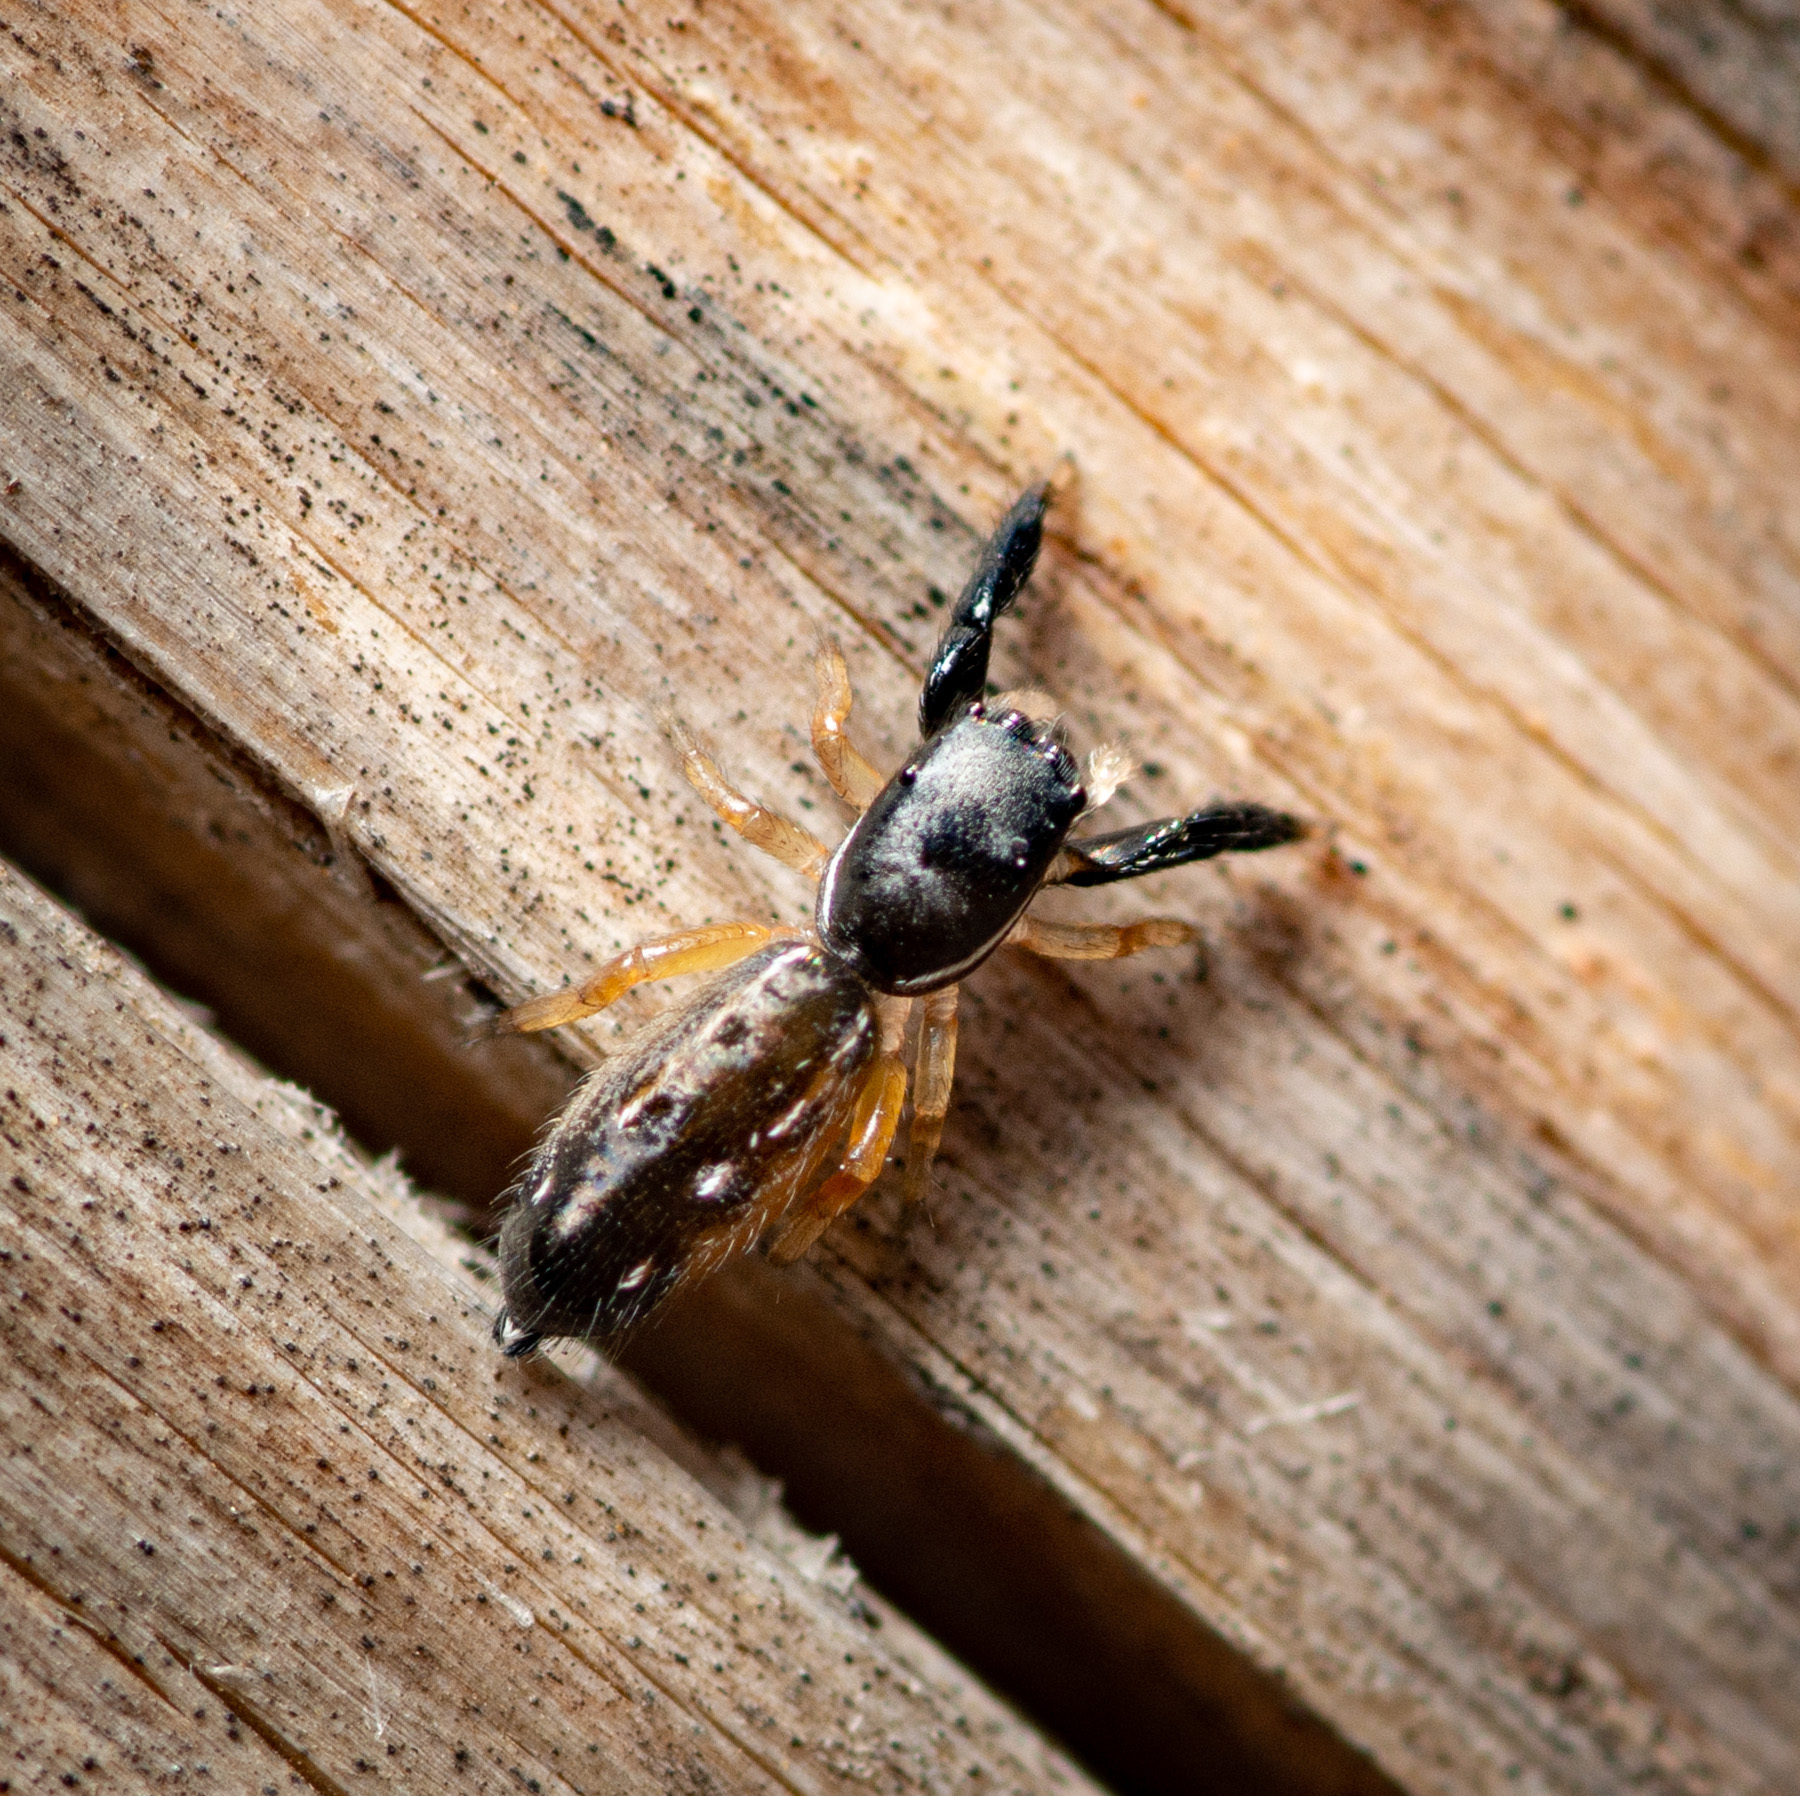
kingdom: Animalia
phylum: Arthropoda
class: Arachnida
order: Araneae
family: Salticidae
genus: Metacyrba
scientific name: Metacyrba floridana
